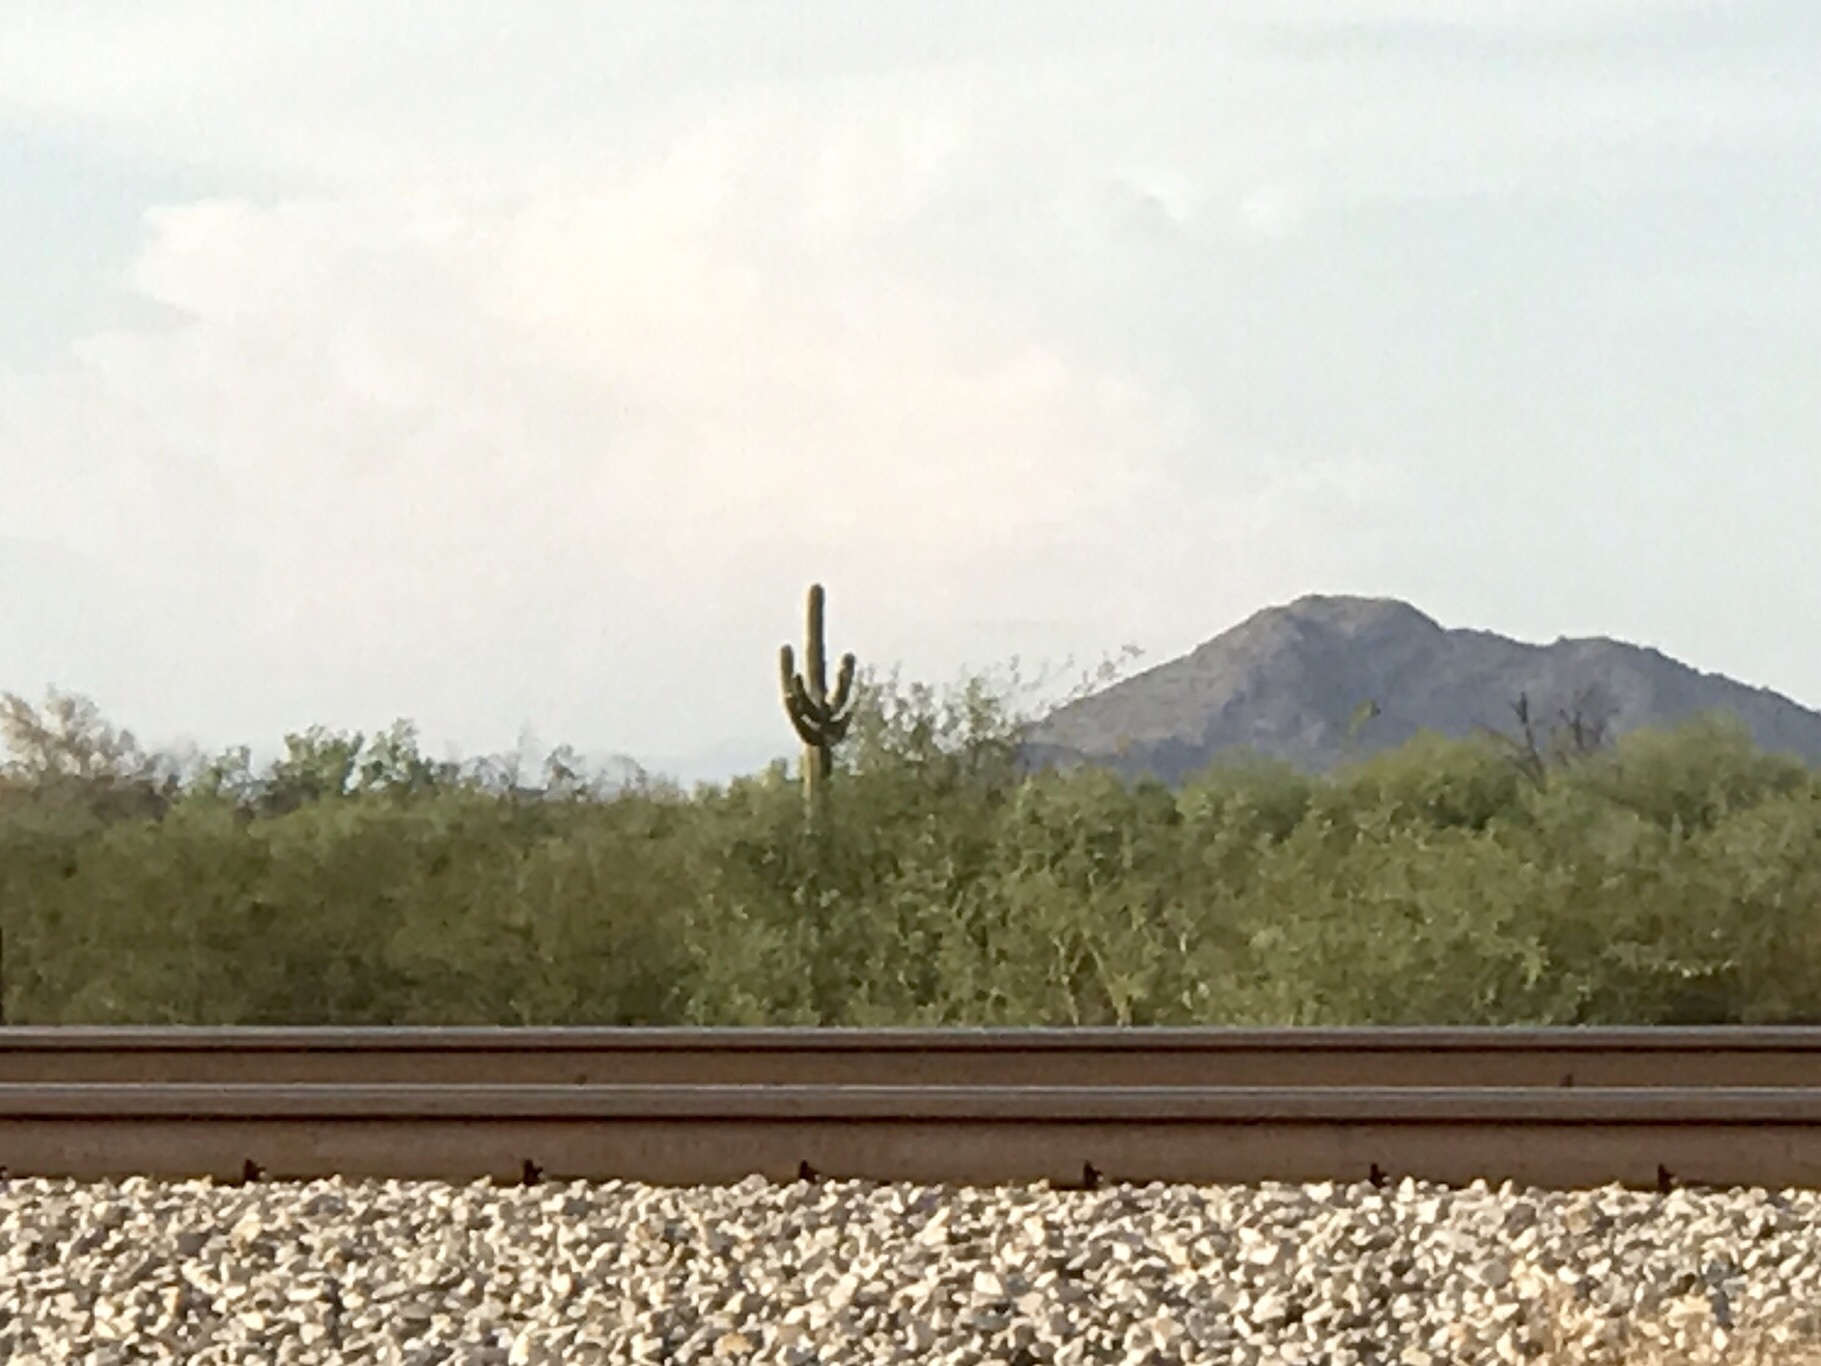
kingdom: Plantae
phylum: Tracheophyta
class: Magnoliopsida
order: Caryophyllales
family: Cactaceae
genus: Carnegiea
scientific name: Carnegiea gigantea
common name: Saguaro
